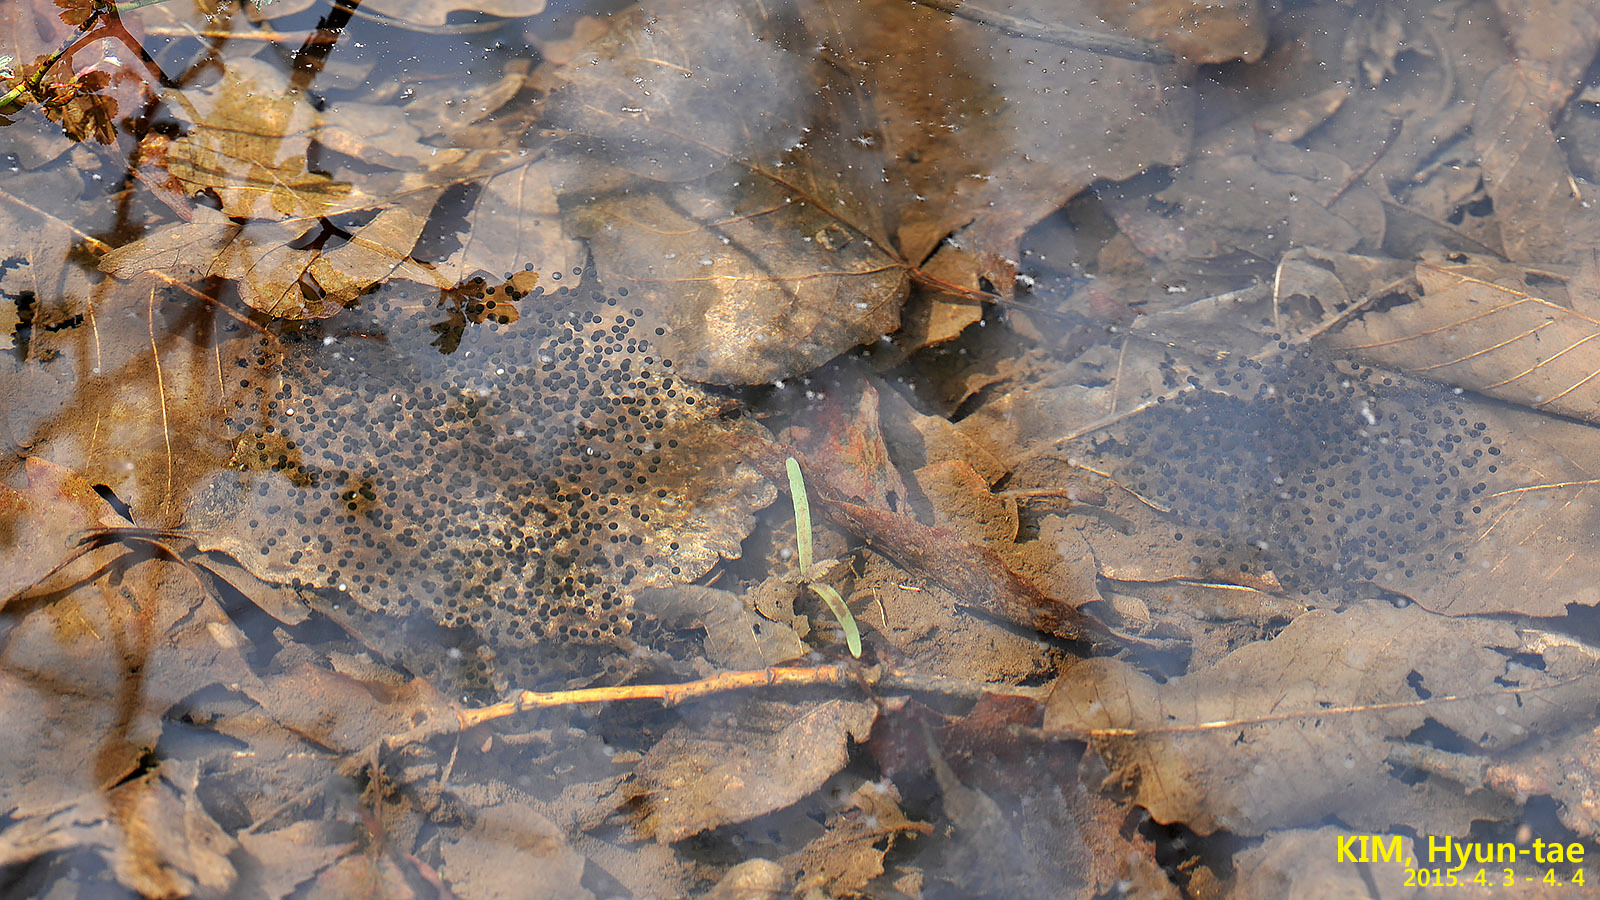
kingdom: Animalia
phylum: Chordata
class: Amphibia
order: Anura
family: Ranidae
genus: Rana
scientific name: Rana uenoi
